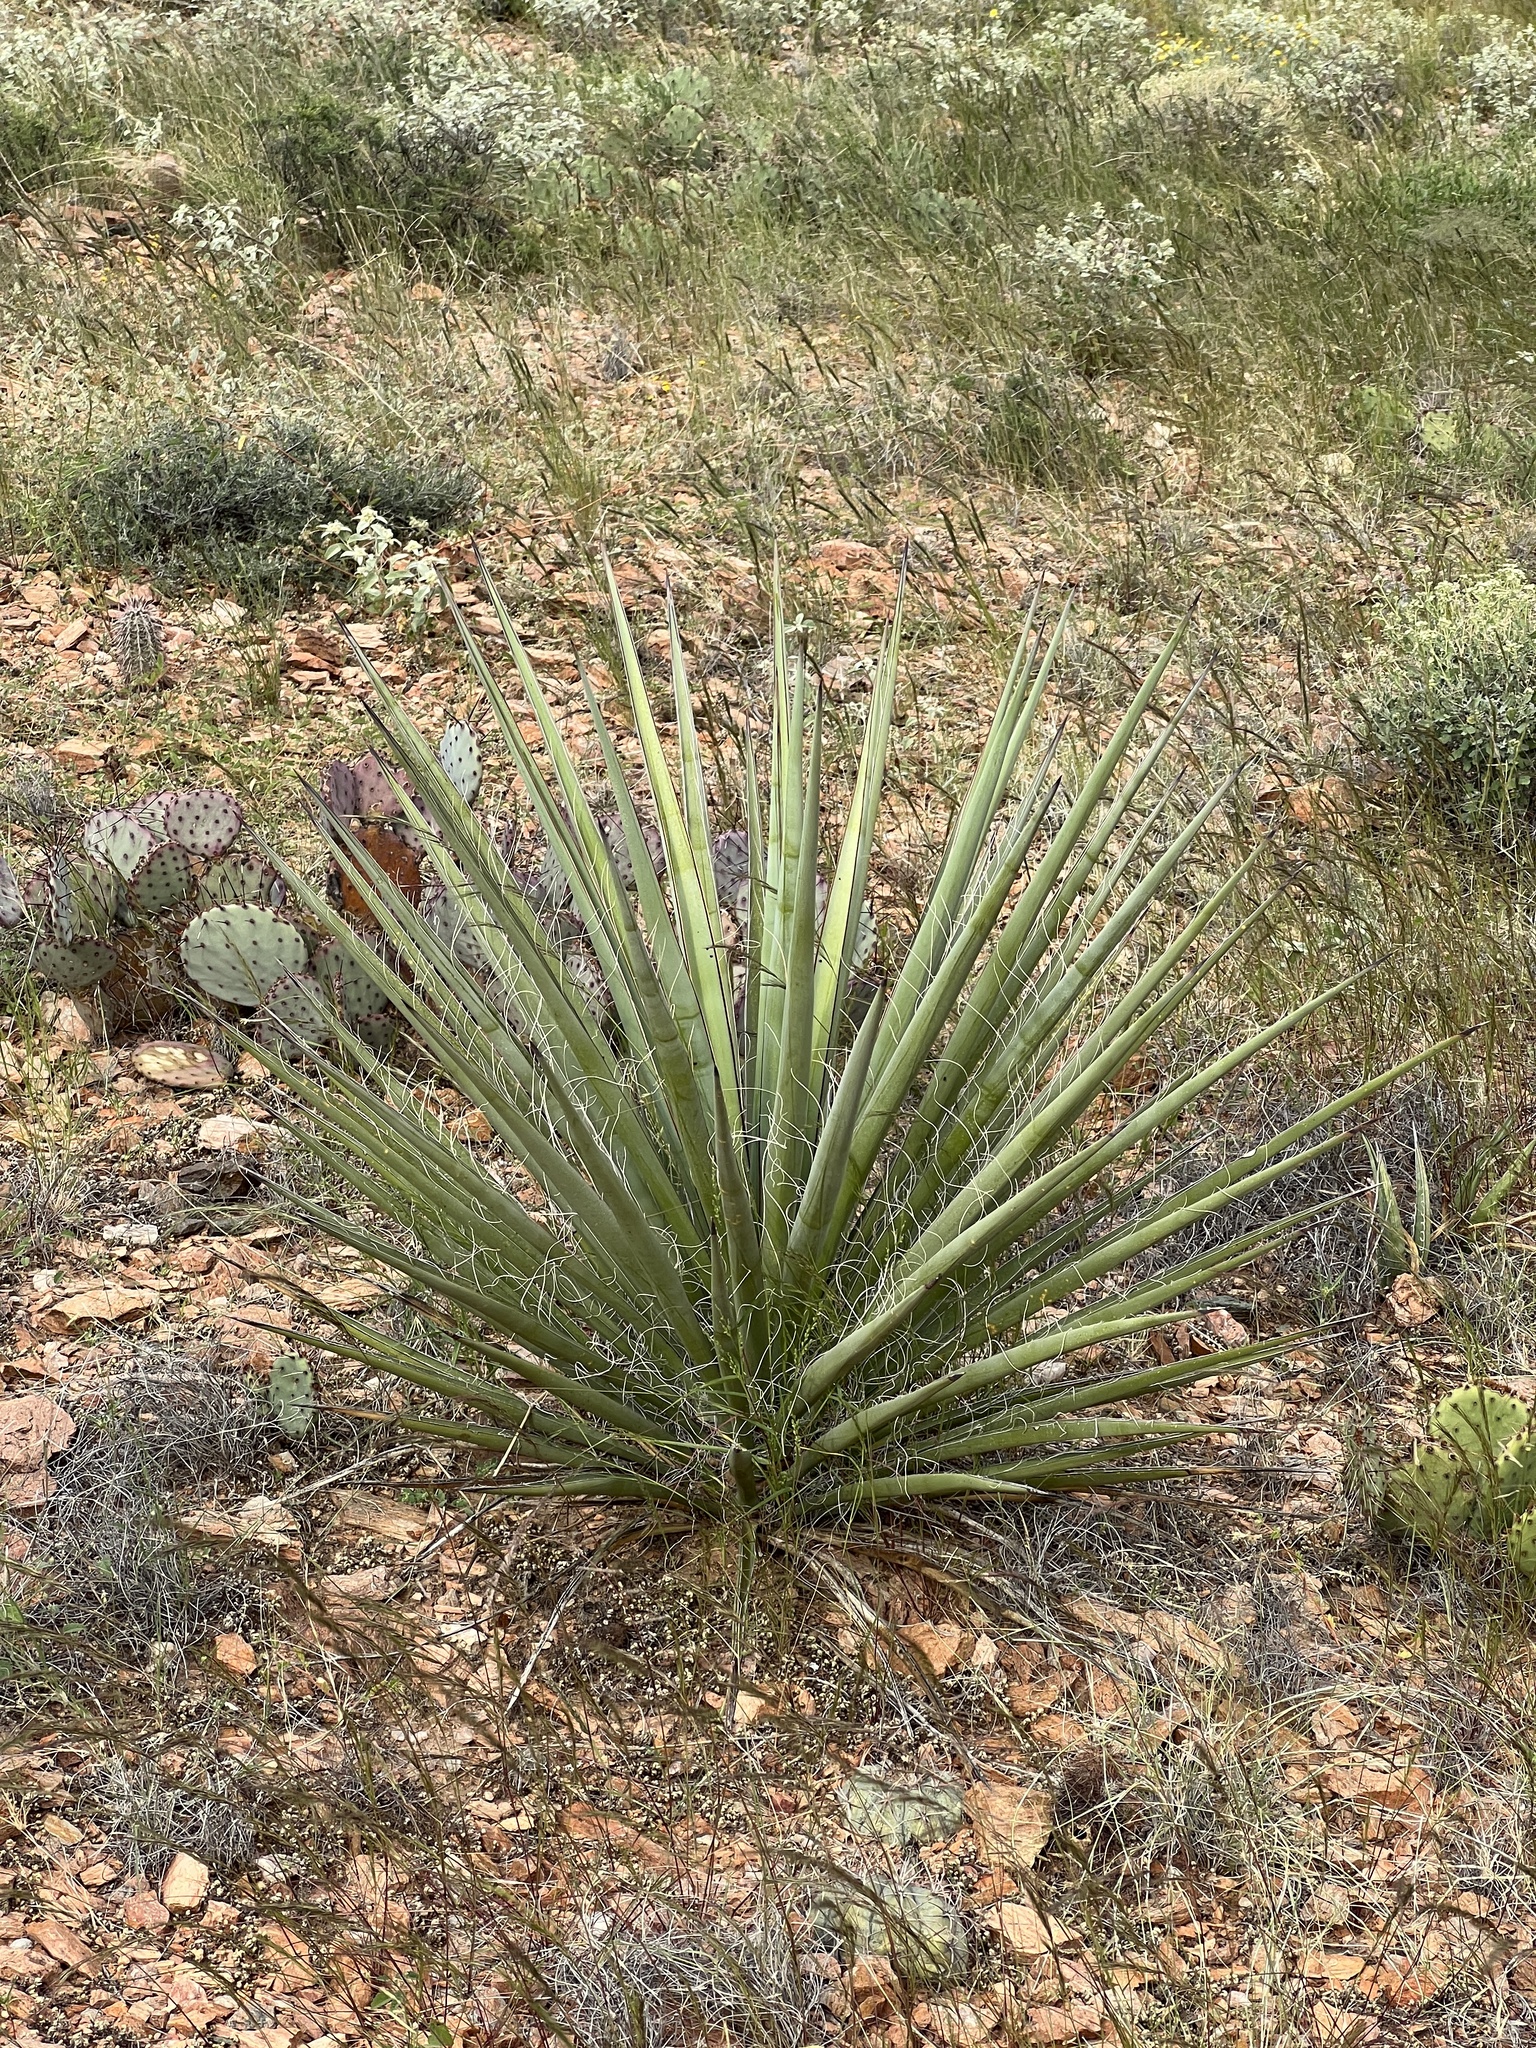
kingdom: Plantae
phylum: Tracheophyta
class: Liliopsida
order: Asparagales
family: Asparagaceae
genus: Yucca
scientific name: Yucca treculiana
